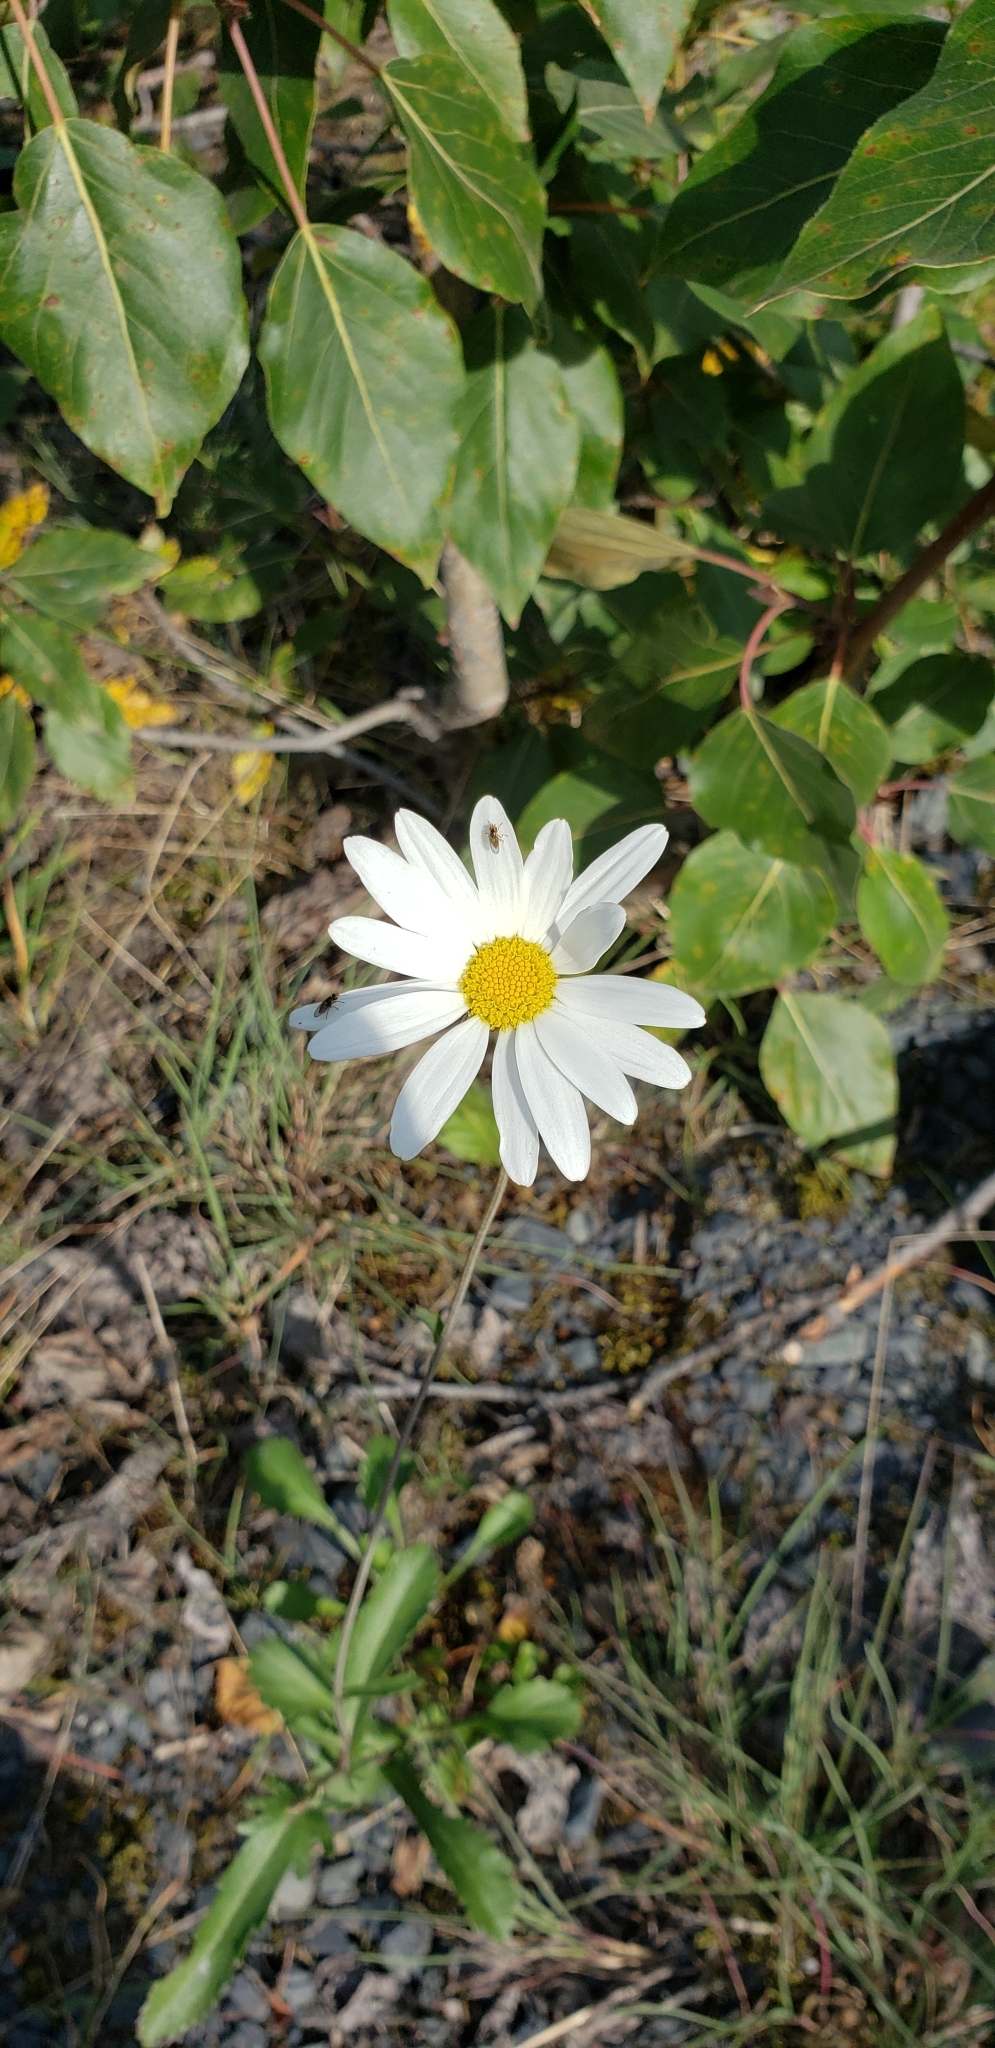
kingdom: Plantae
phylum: Tracheophyta
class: Magnoliopsida
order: Asterales
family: Asteraceae
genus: Leucanthemum
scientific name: Leucanthemum vulgare
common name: Oxeye daisy
